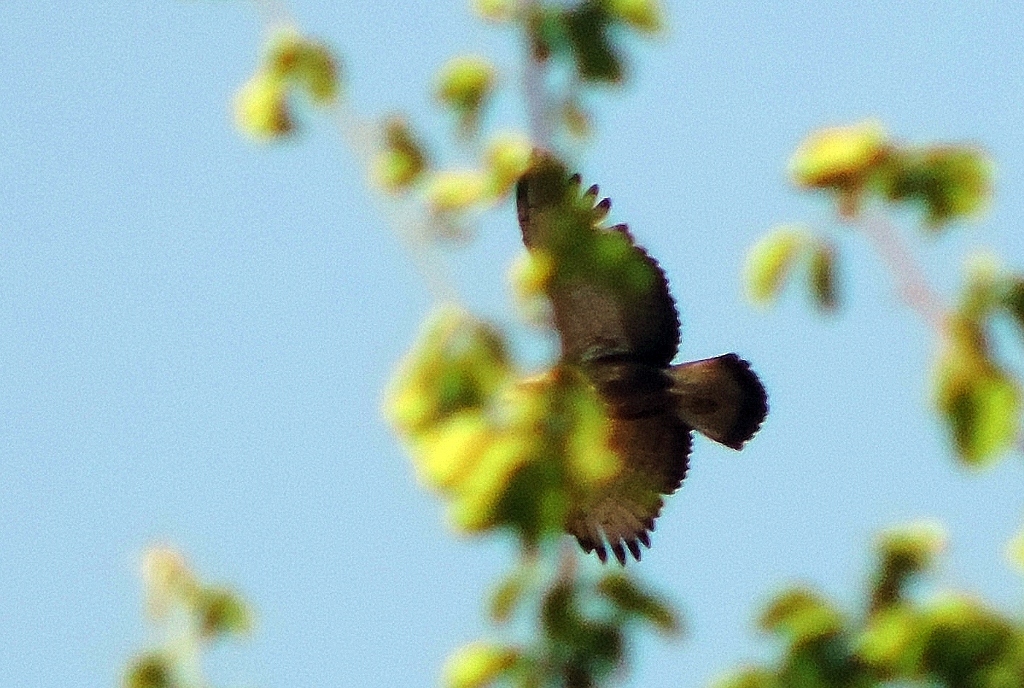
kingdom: Animalia
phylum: Chordata
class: Aves
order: Accipitriformes
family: Accipitridae
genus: Circaetus
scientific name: Circaetus cinerascens
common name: Western banded snake eagle
